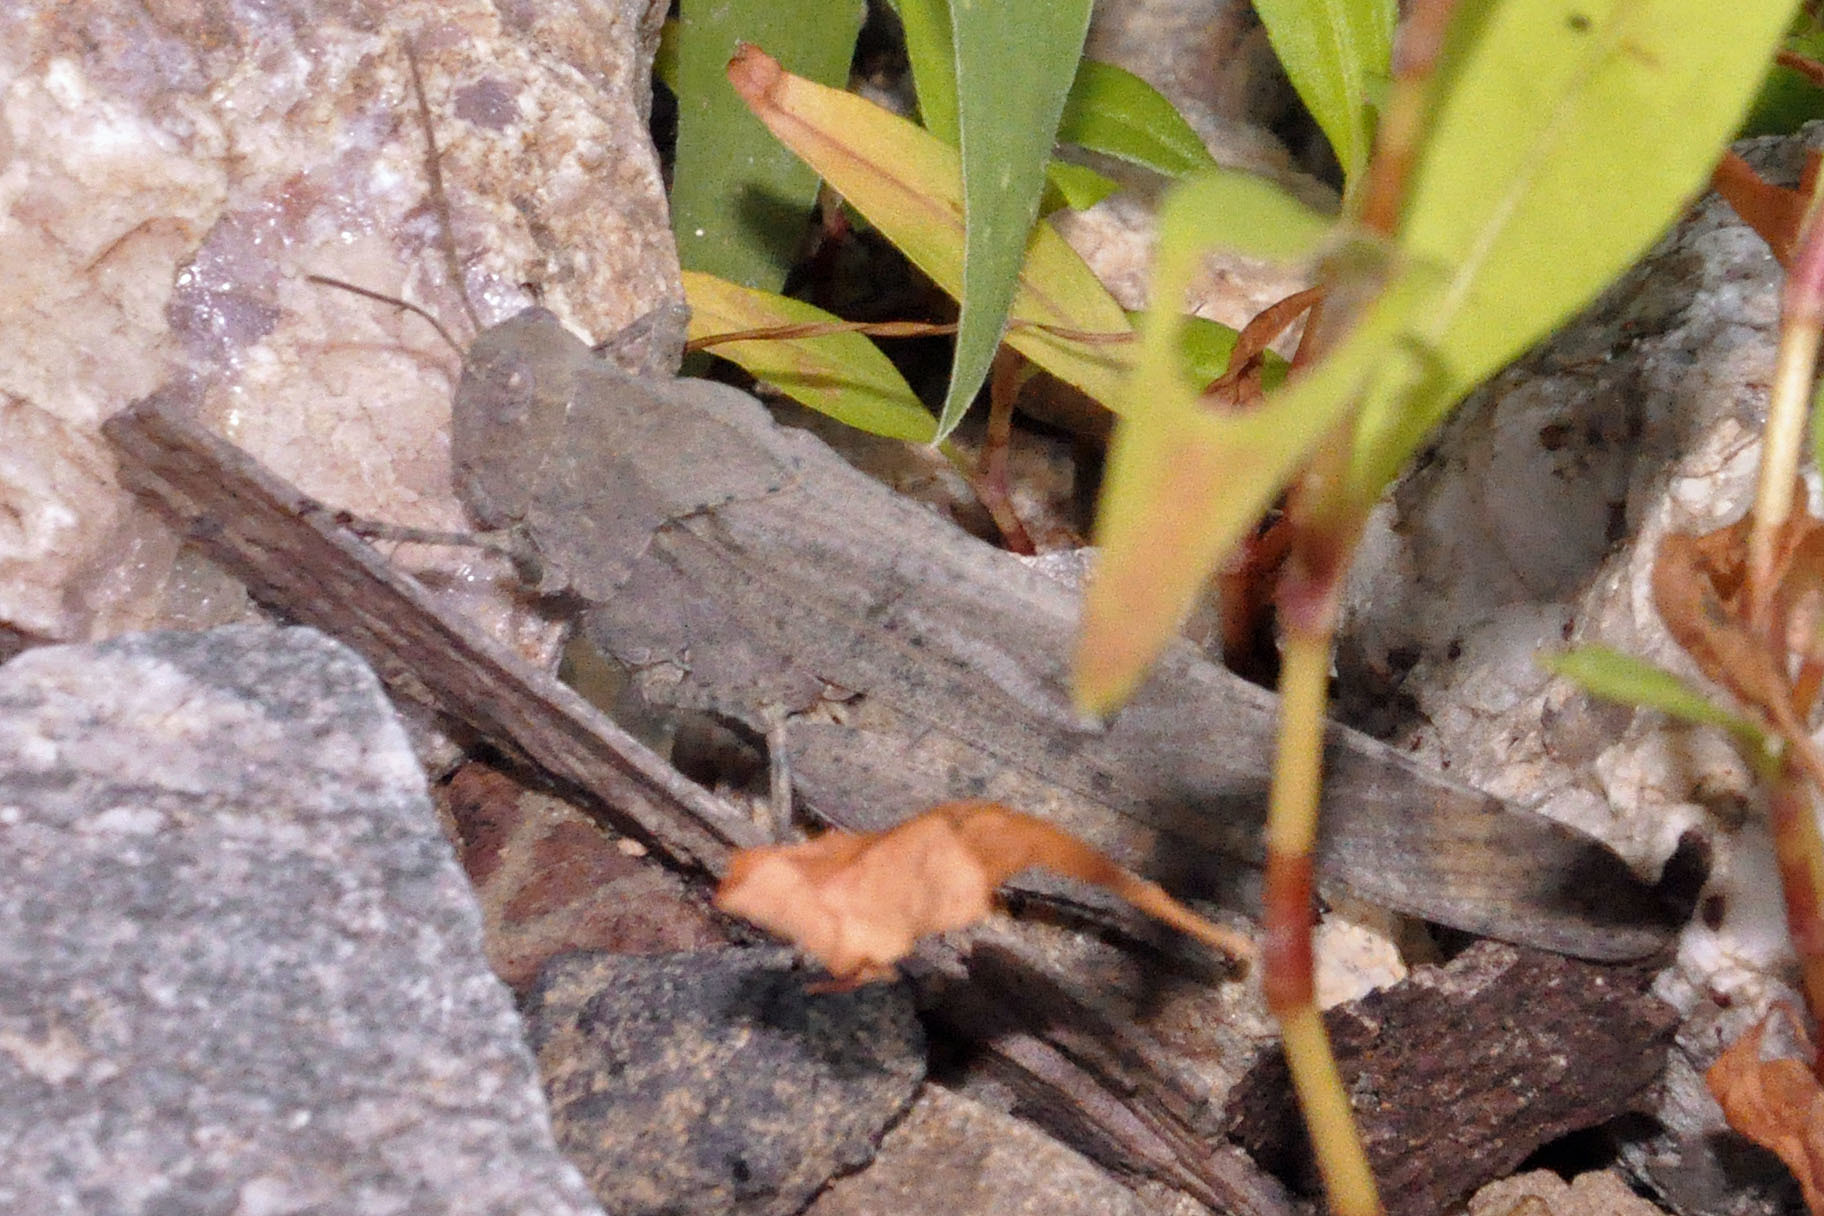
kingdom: Animalia
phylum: Arthropoda
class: Insecta
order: Orthoptera
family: Acrididae
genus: Dissosteira
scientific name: Dissosteira carolina
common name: Carolina grasshopper
